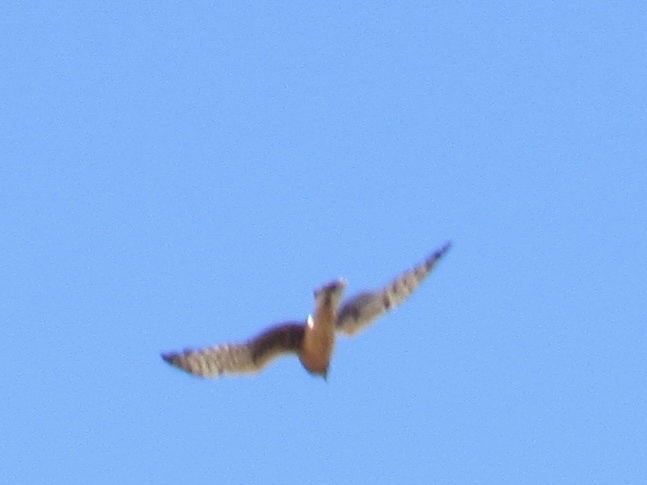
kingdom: Animalia
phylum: Chordata
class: Aves
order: Accipitriformes
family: Accipitridae
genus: Circus
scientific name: Circus cyaneus
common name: Hen harrier
